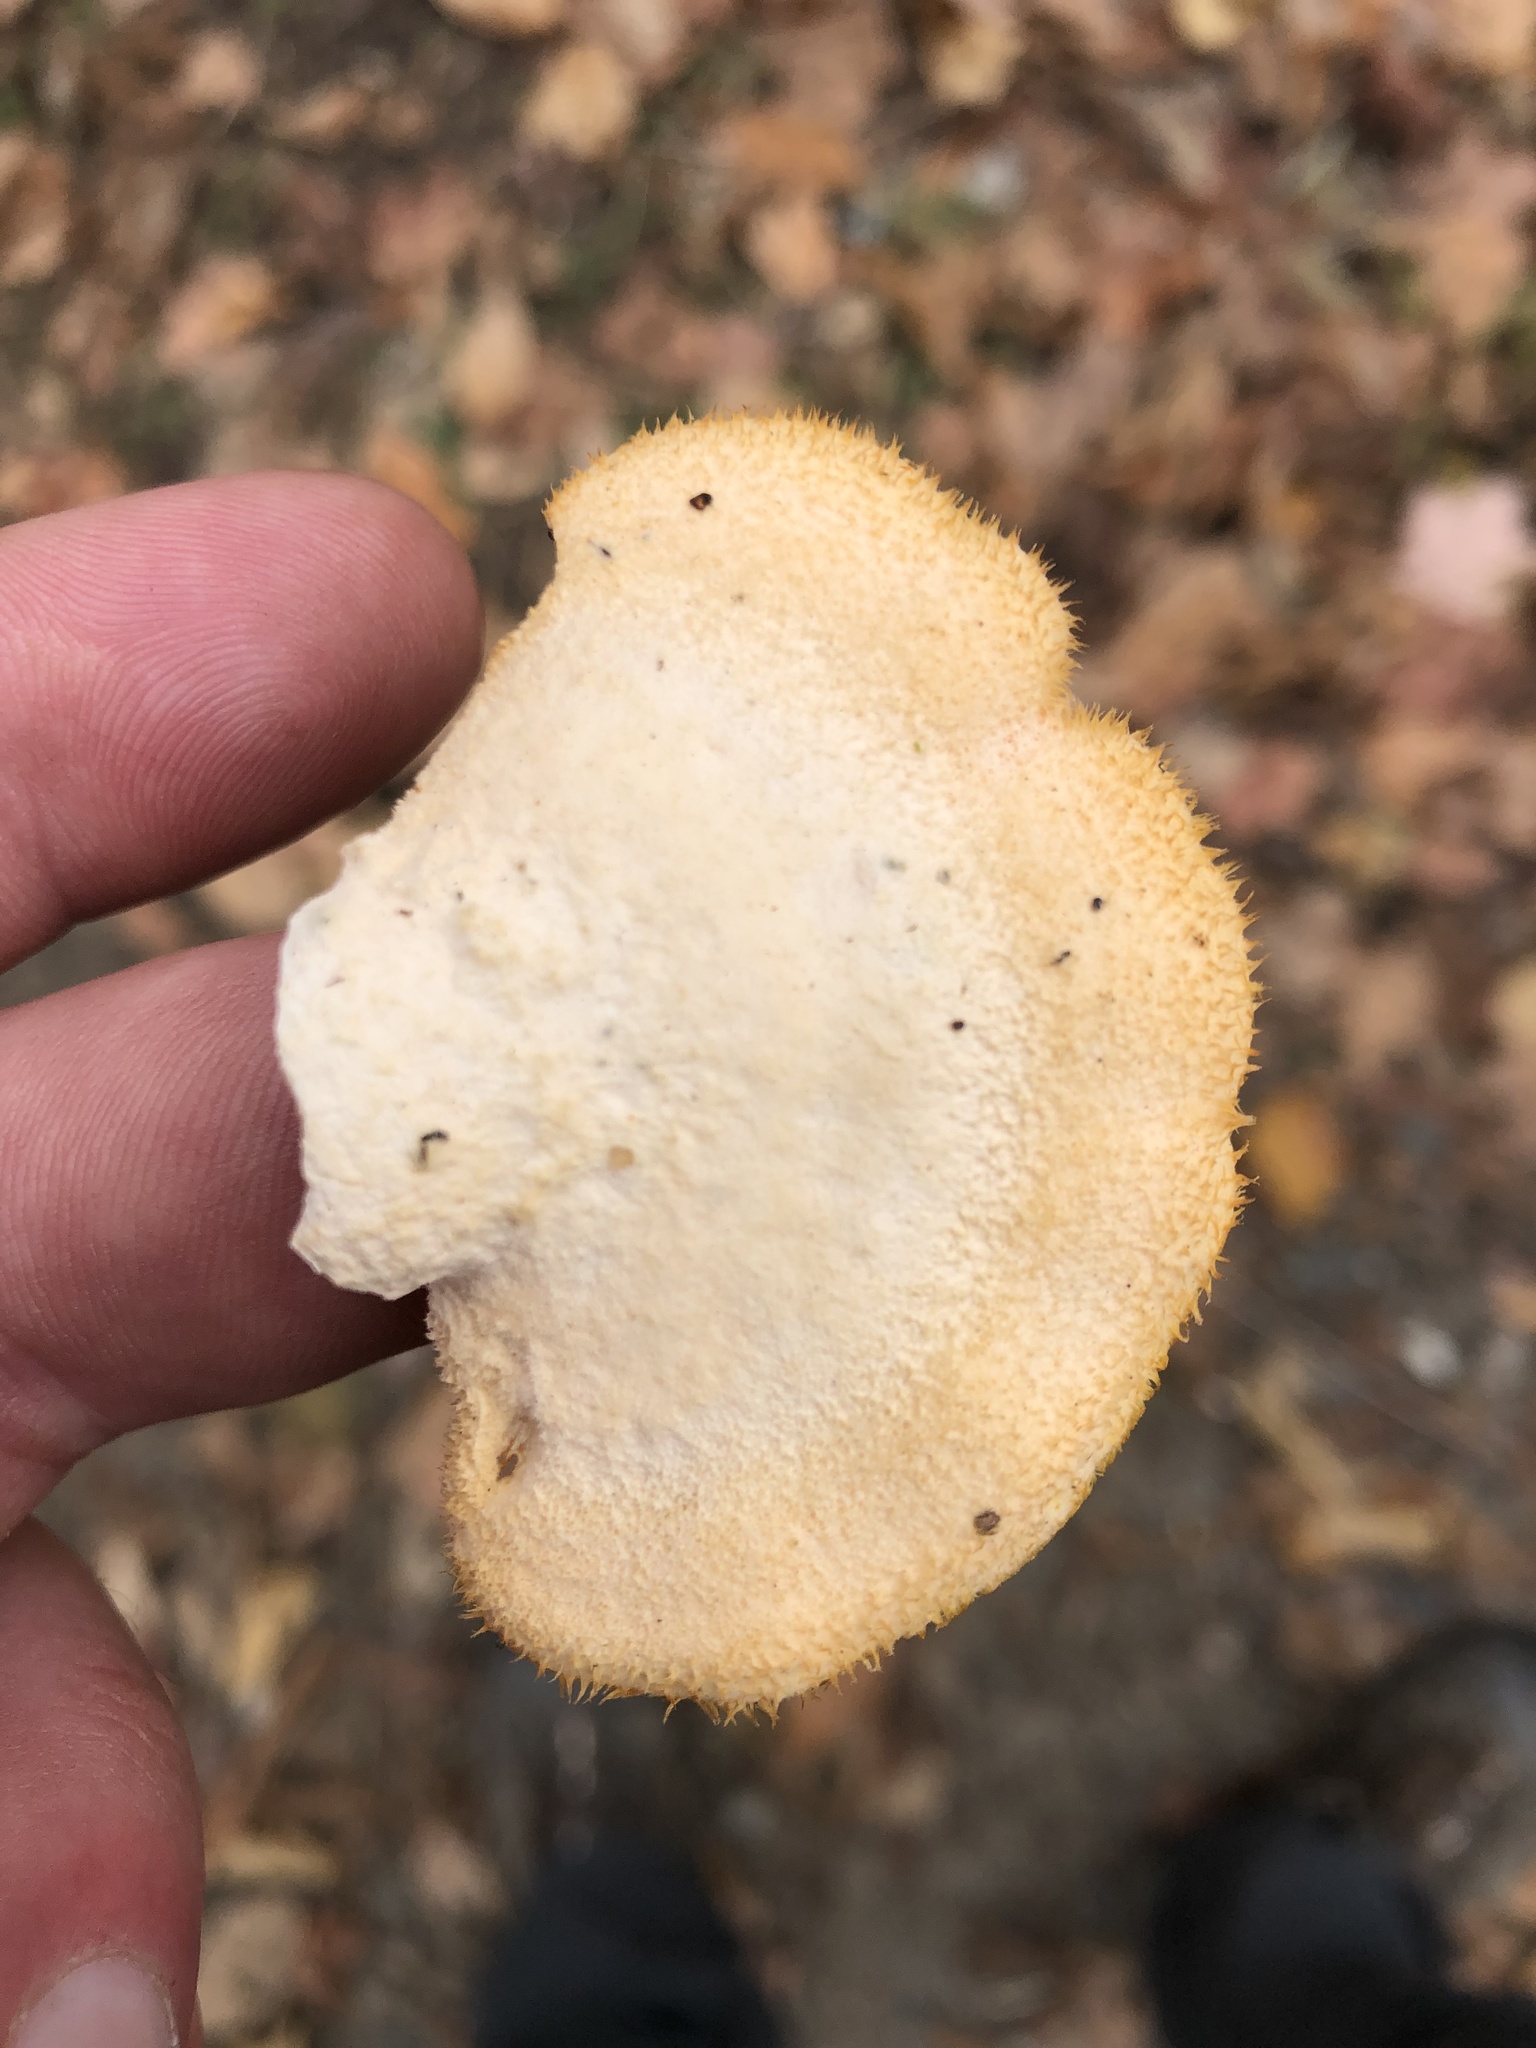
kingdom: Fungi
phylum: Basidiomycota
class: Agaricomycetes
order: Agaricales
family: Phyllotopsidaceae
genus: Phyllotopsis
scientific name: Phyllotopsis nidulans
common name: Orange mock oyster
